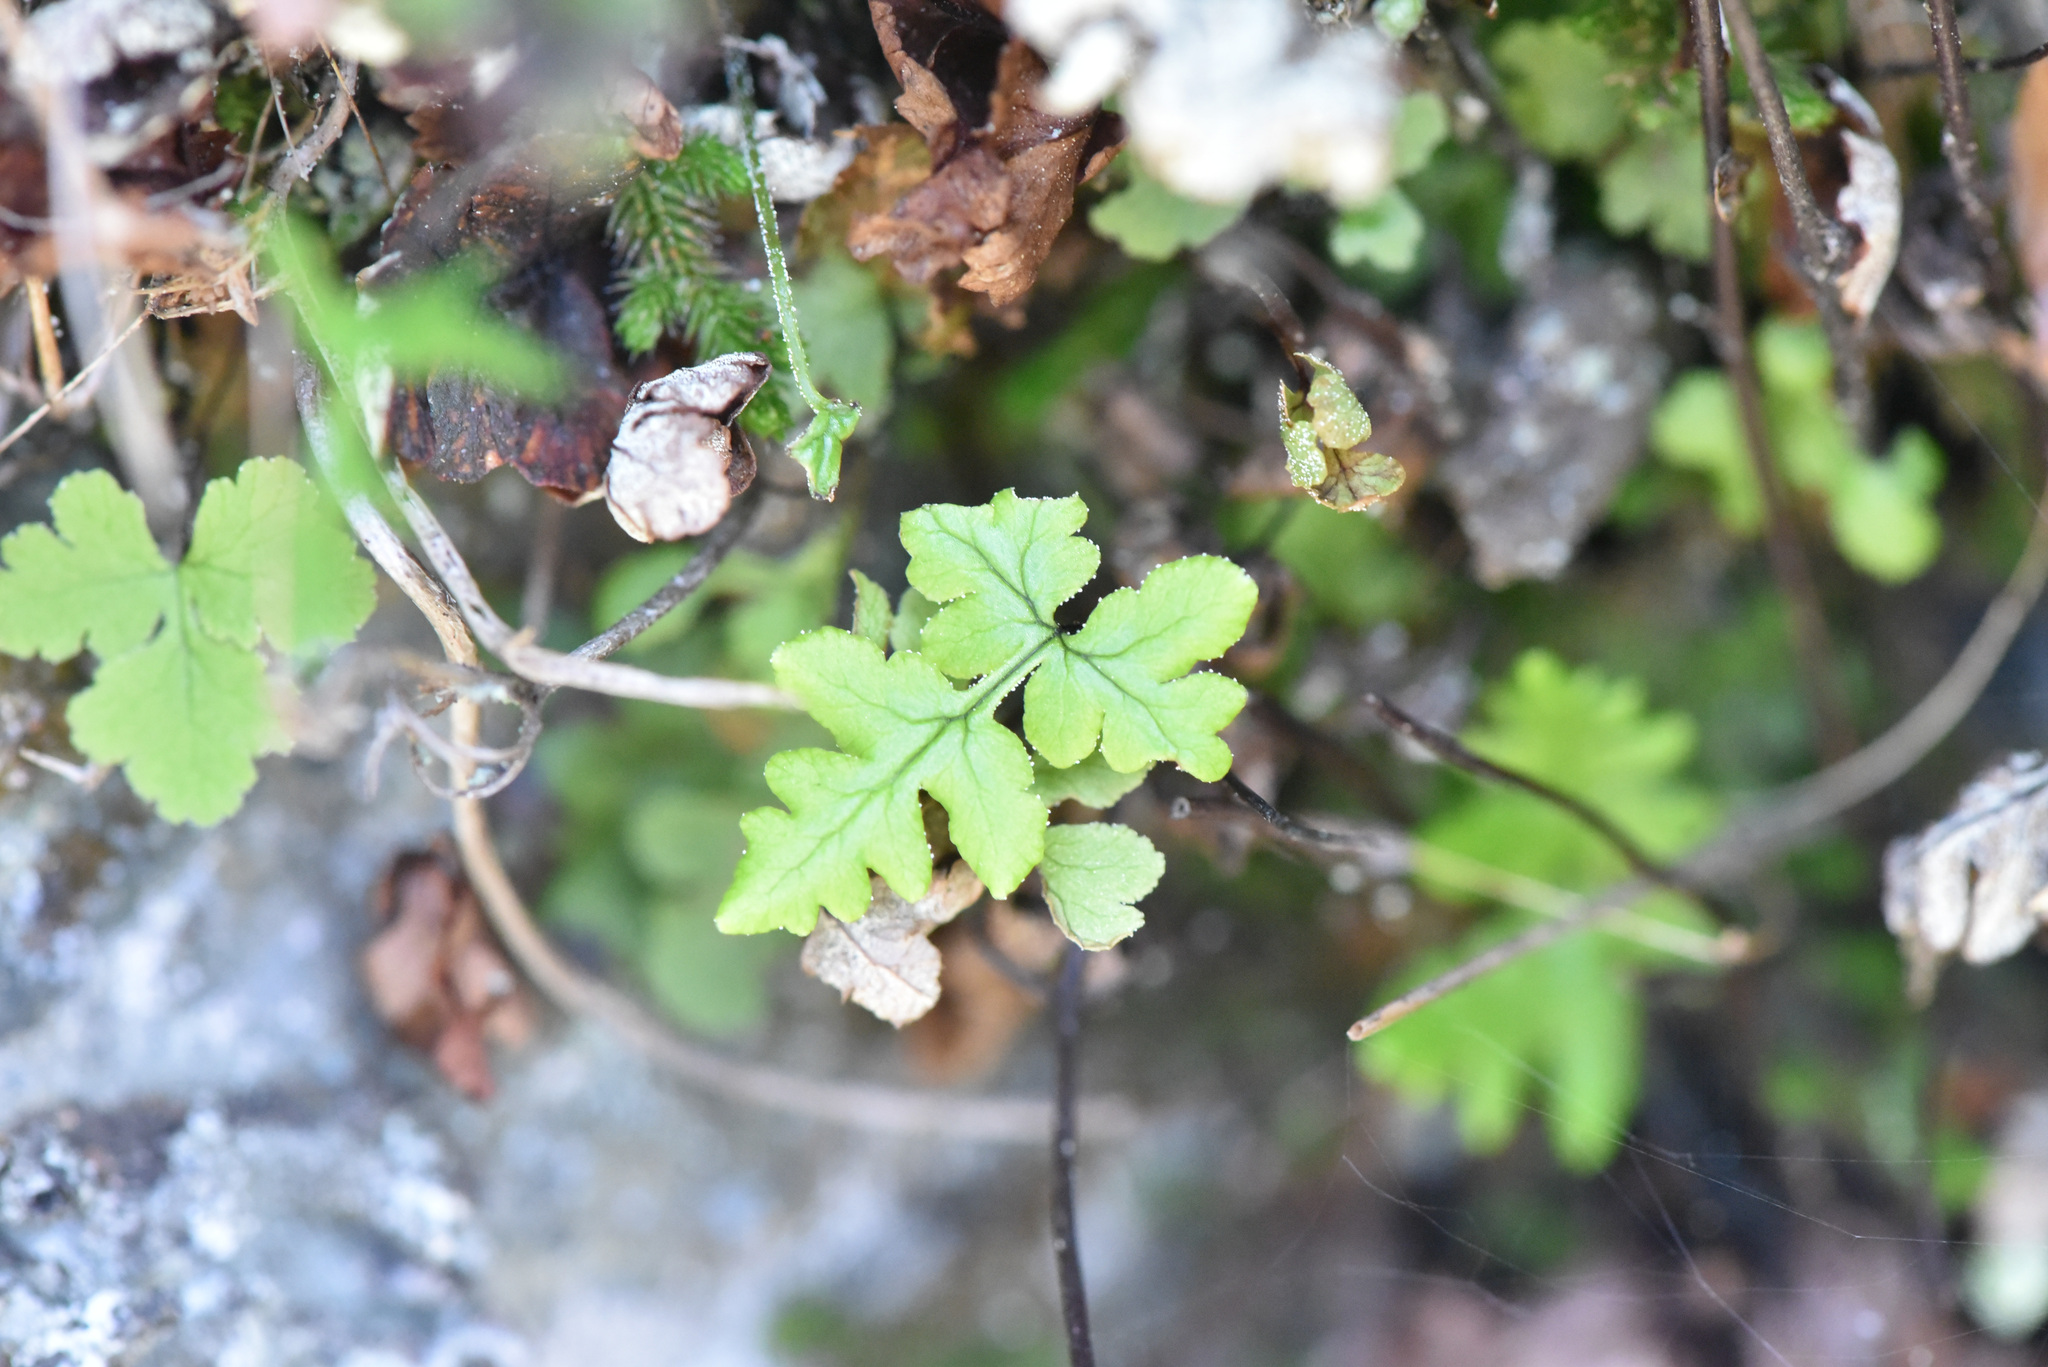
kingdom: Plantae
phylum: Tracheophyta
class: Polypodiopsida
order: Polypodiales
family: Pteridaceae
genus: Pentagramma
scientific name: Pentagramma triangularis
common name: Gold fern
